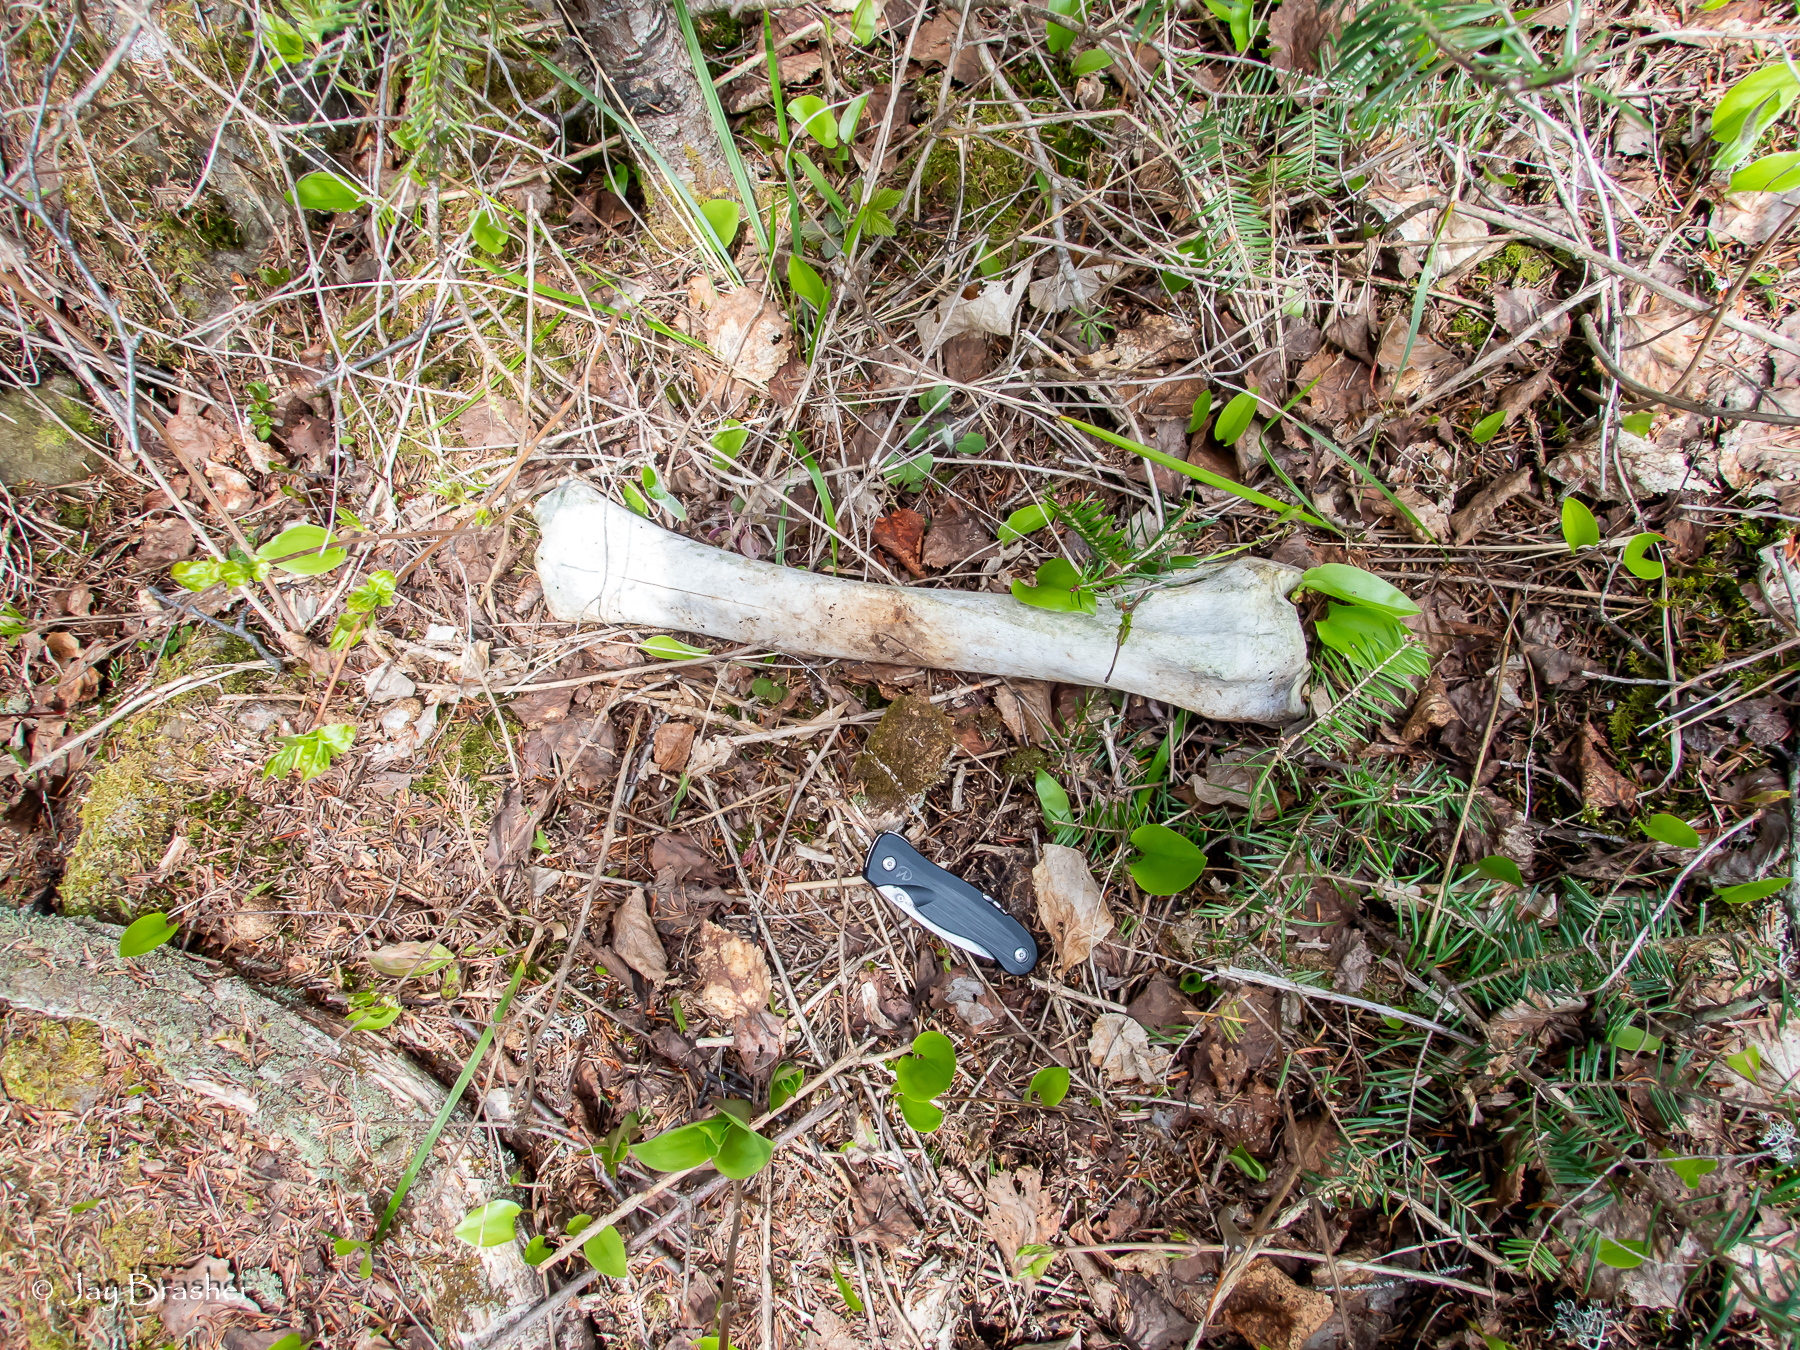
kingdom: Animalia
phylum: Chordata
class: Mammalia
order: Artiodactyla
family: Cervidae
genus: Alces
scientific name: Alces americanus
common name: Moose
